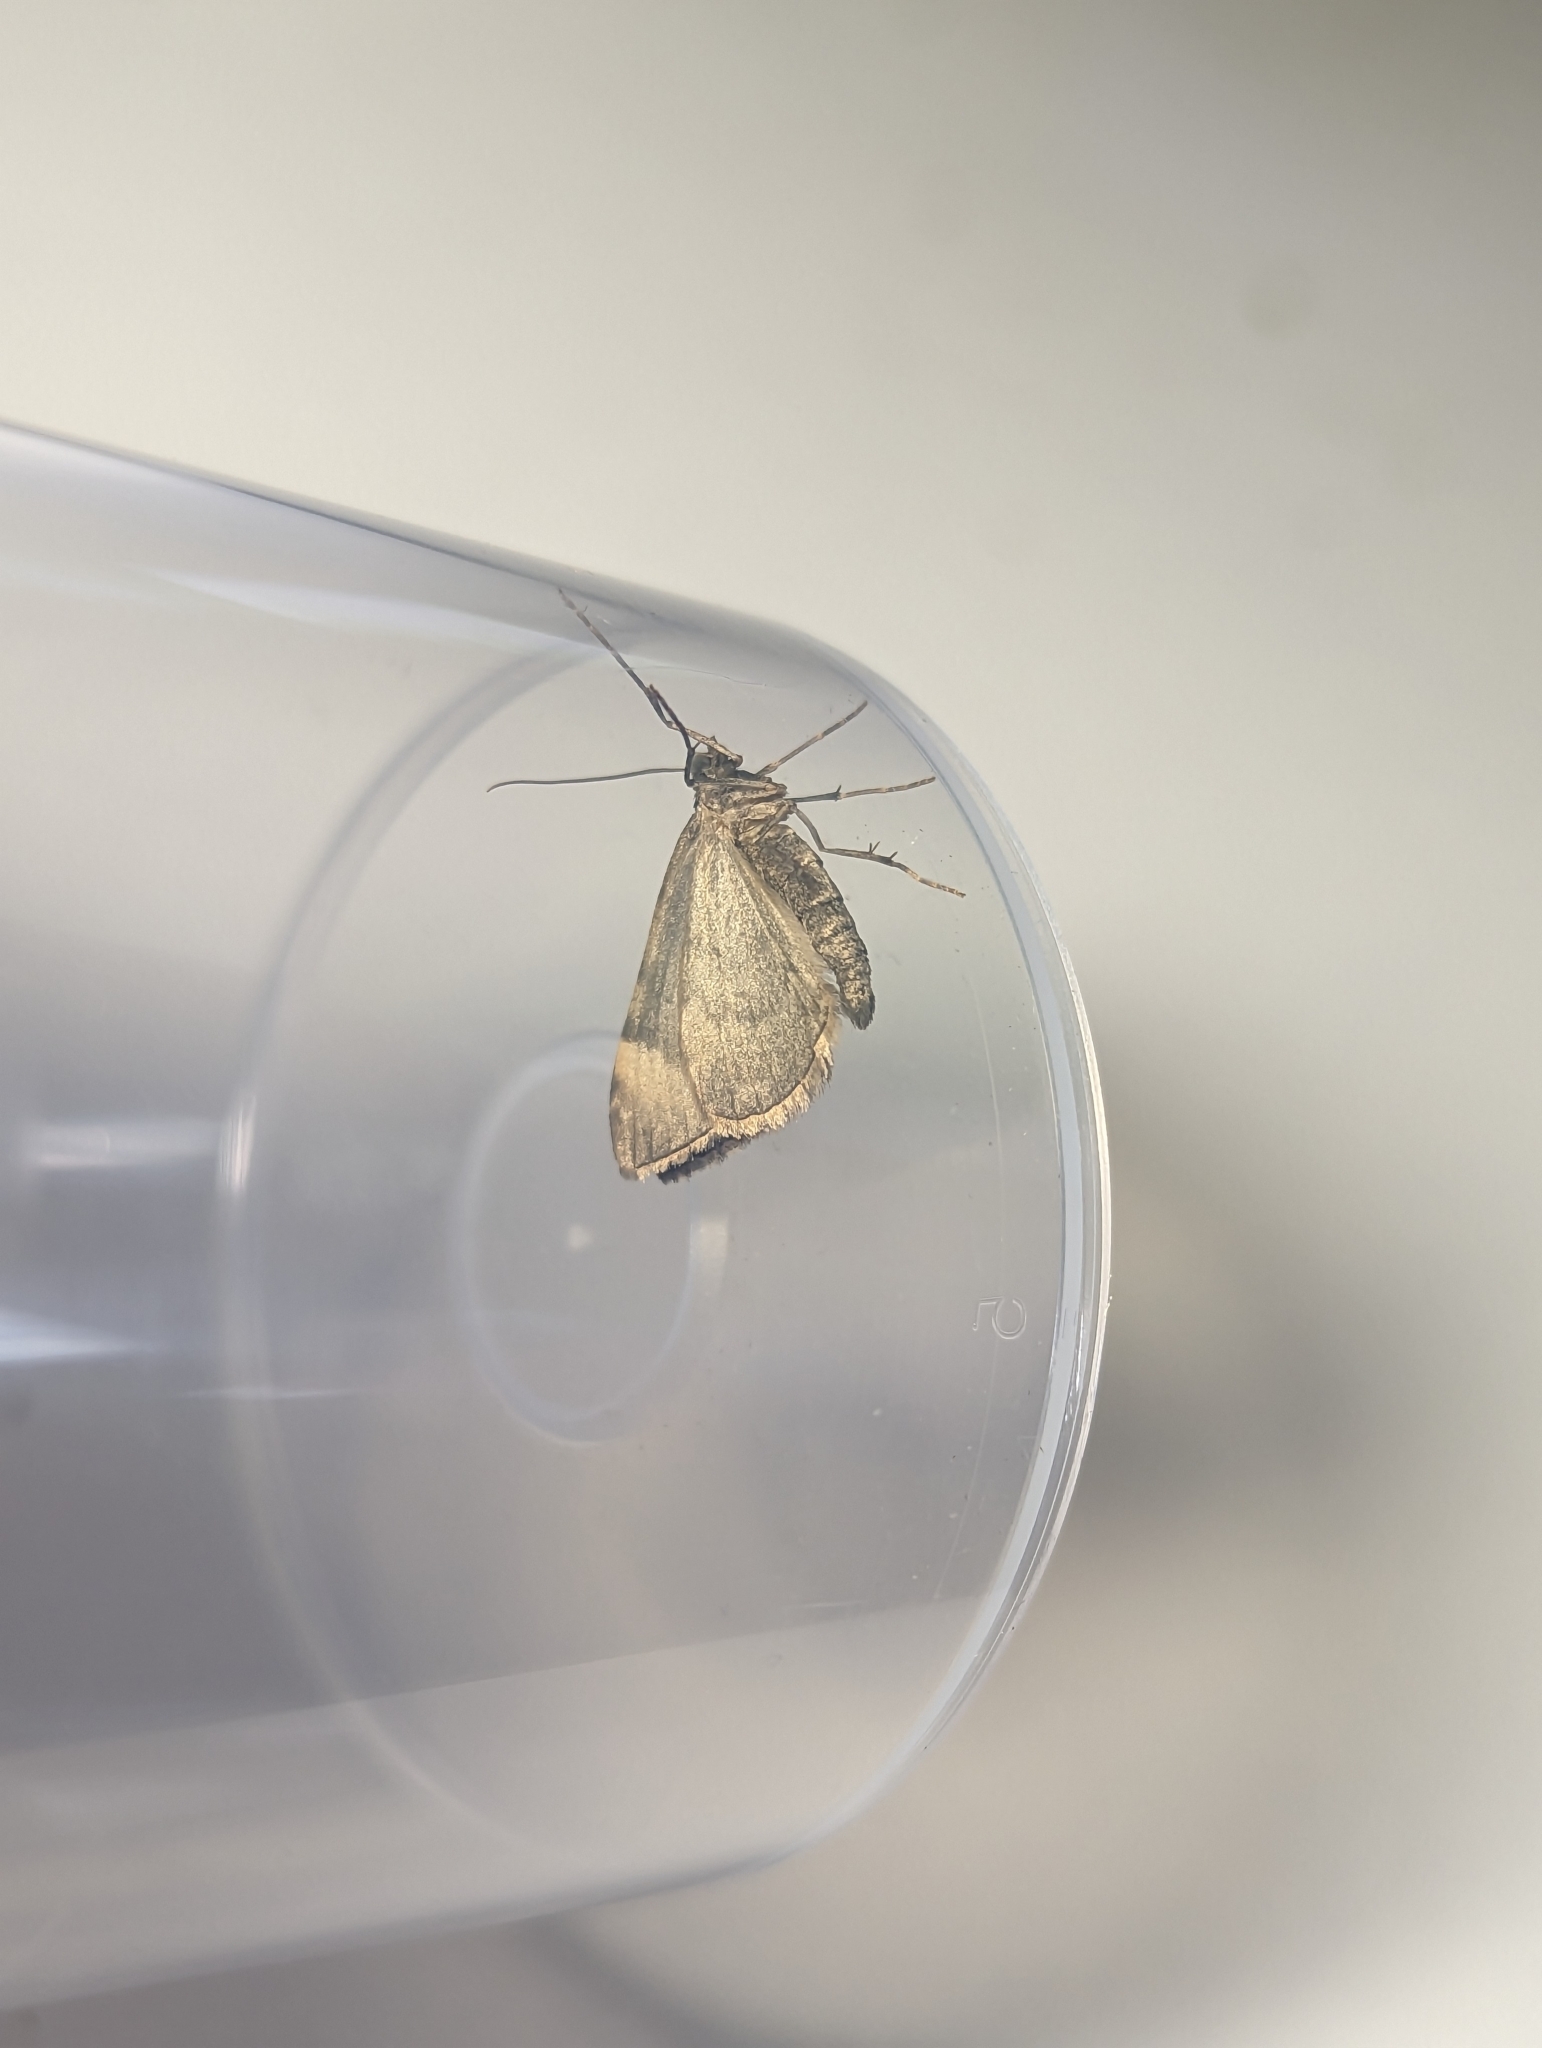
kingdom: Animalia
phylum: Arthropoda
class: Insecta
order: Lepidoptera
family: Geometridae
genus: Dysstroma
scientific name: Dysstroma truncata
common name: Common marbled carpet
